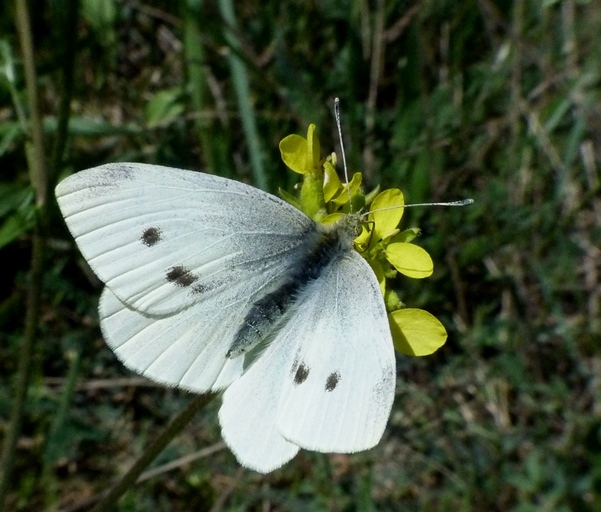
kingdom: Animalia
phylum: Arthropoda
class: Insecta
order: Lepidoptera
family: Pieridae
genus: Pieris
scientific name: Pieris rapae
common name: Small white
